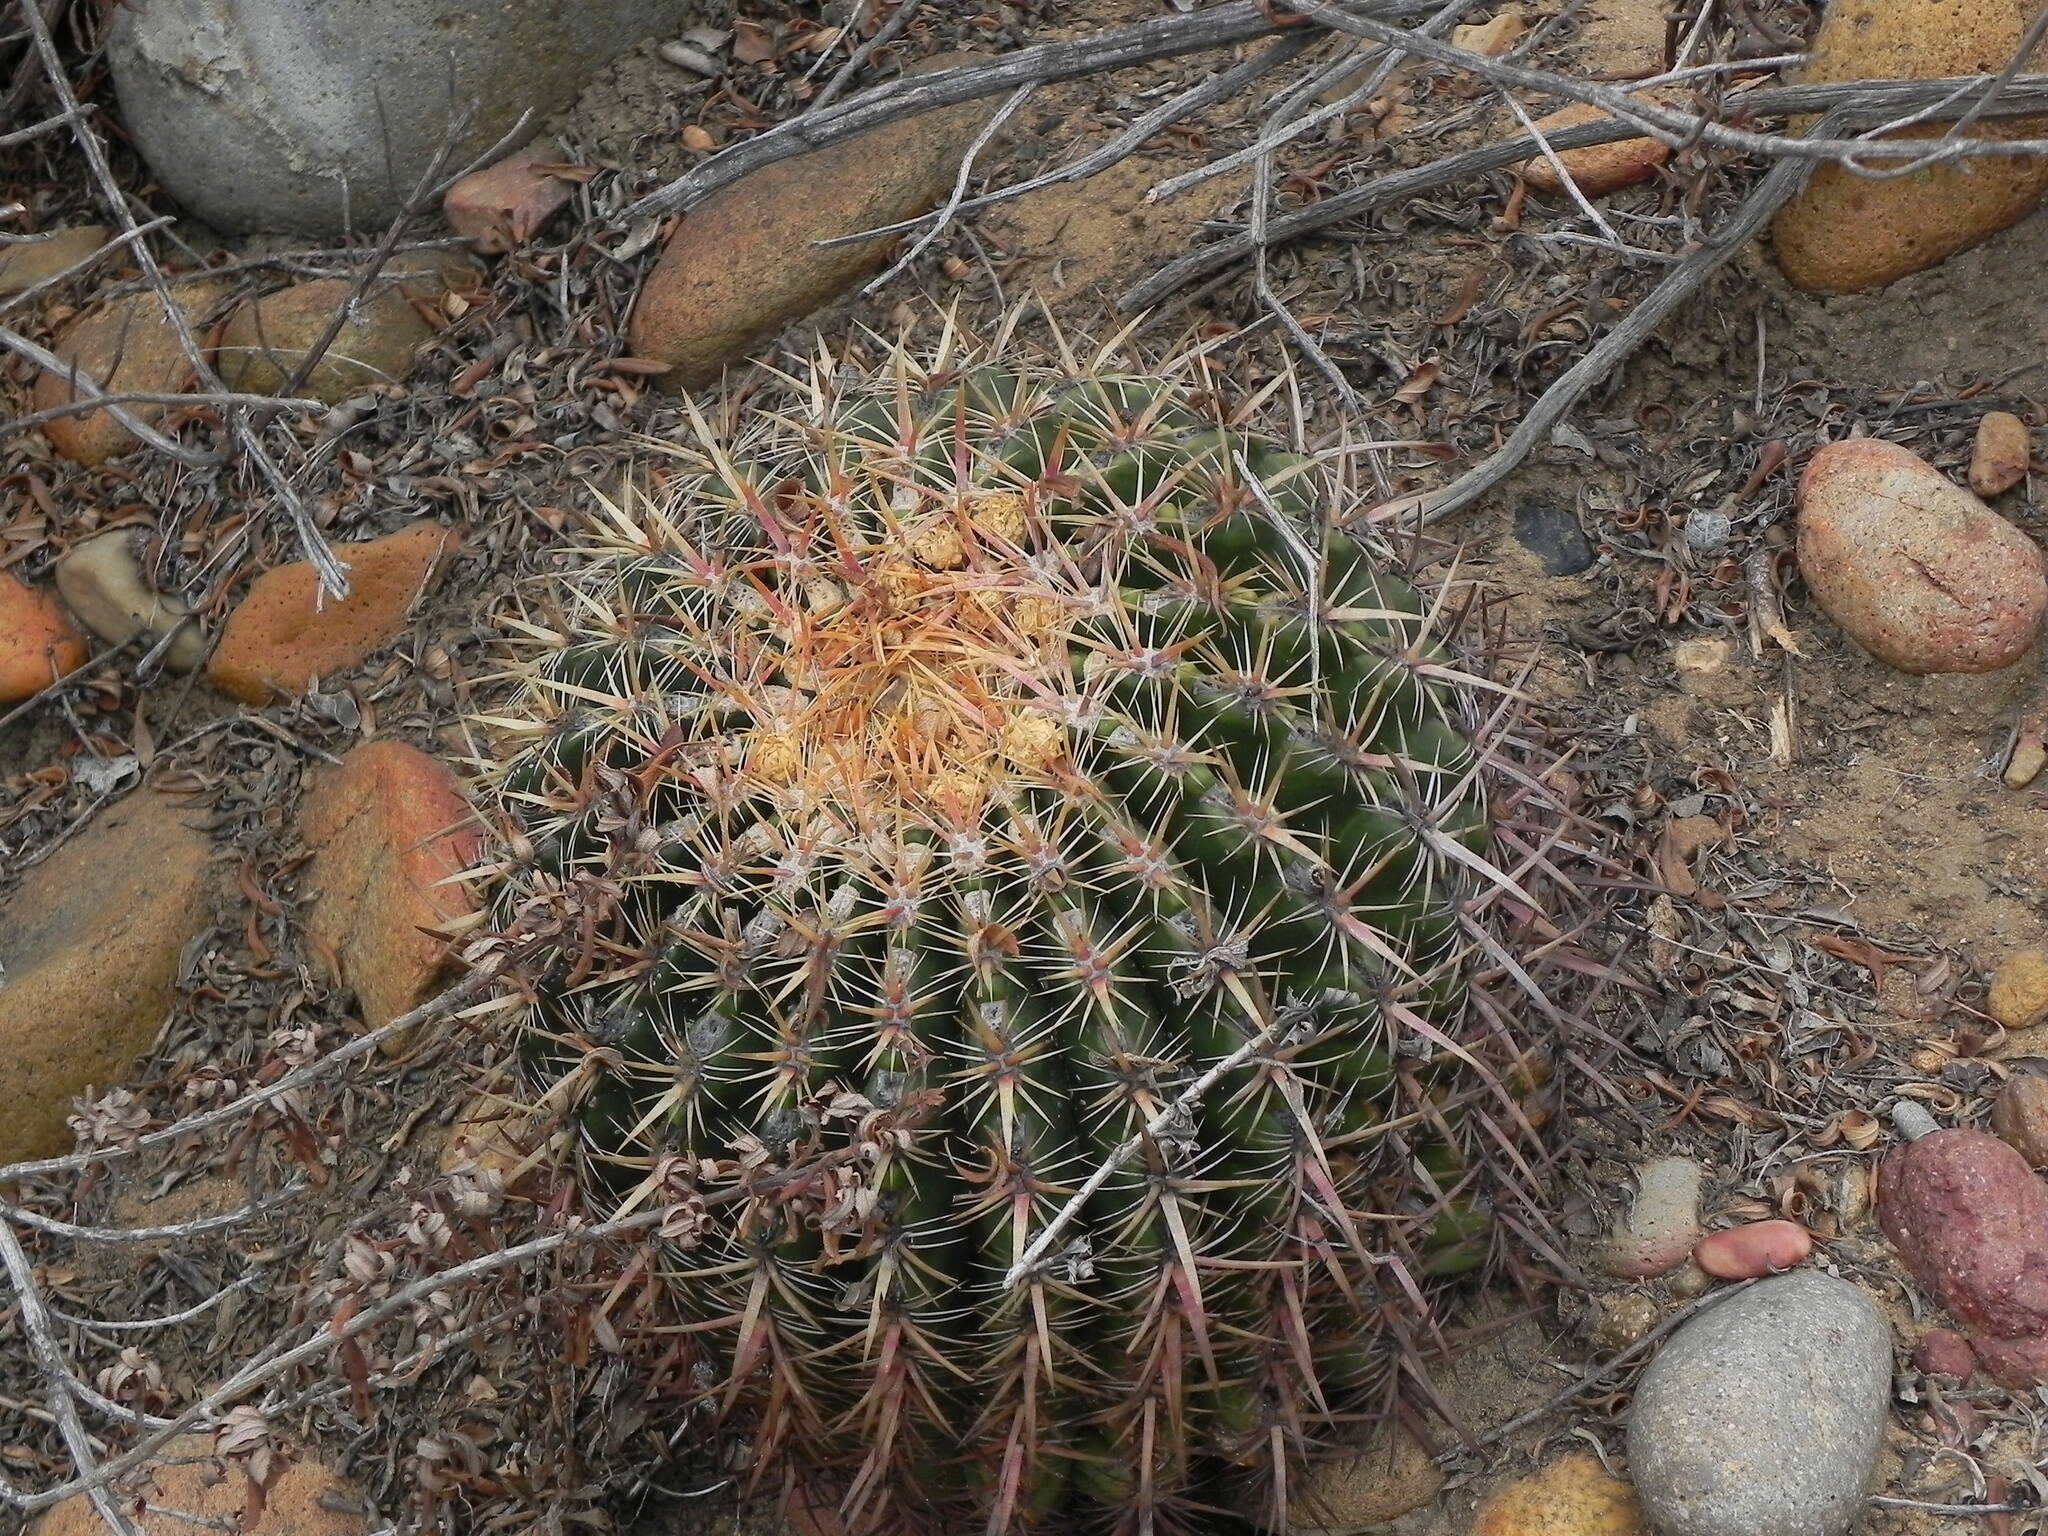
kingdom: Plantae
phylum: Tracheophyta
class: Magnoliopsida
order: Caryophyllales
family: Cactaceae
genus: Ferocactus
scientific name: Ferocactus viridescens
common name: San diego barrel cactus
